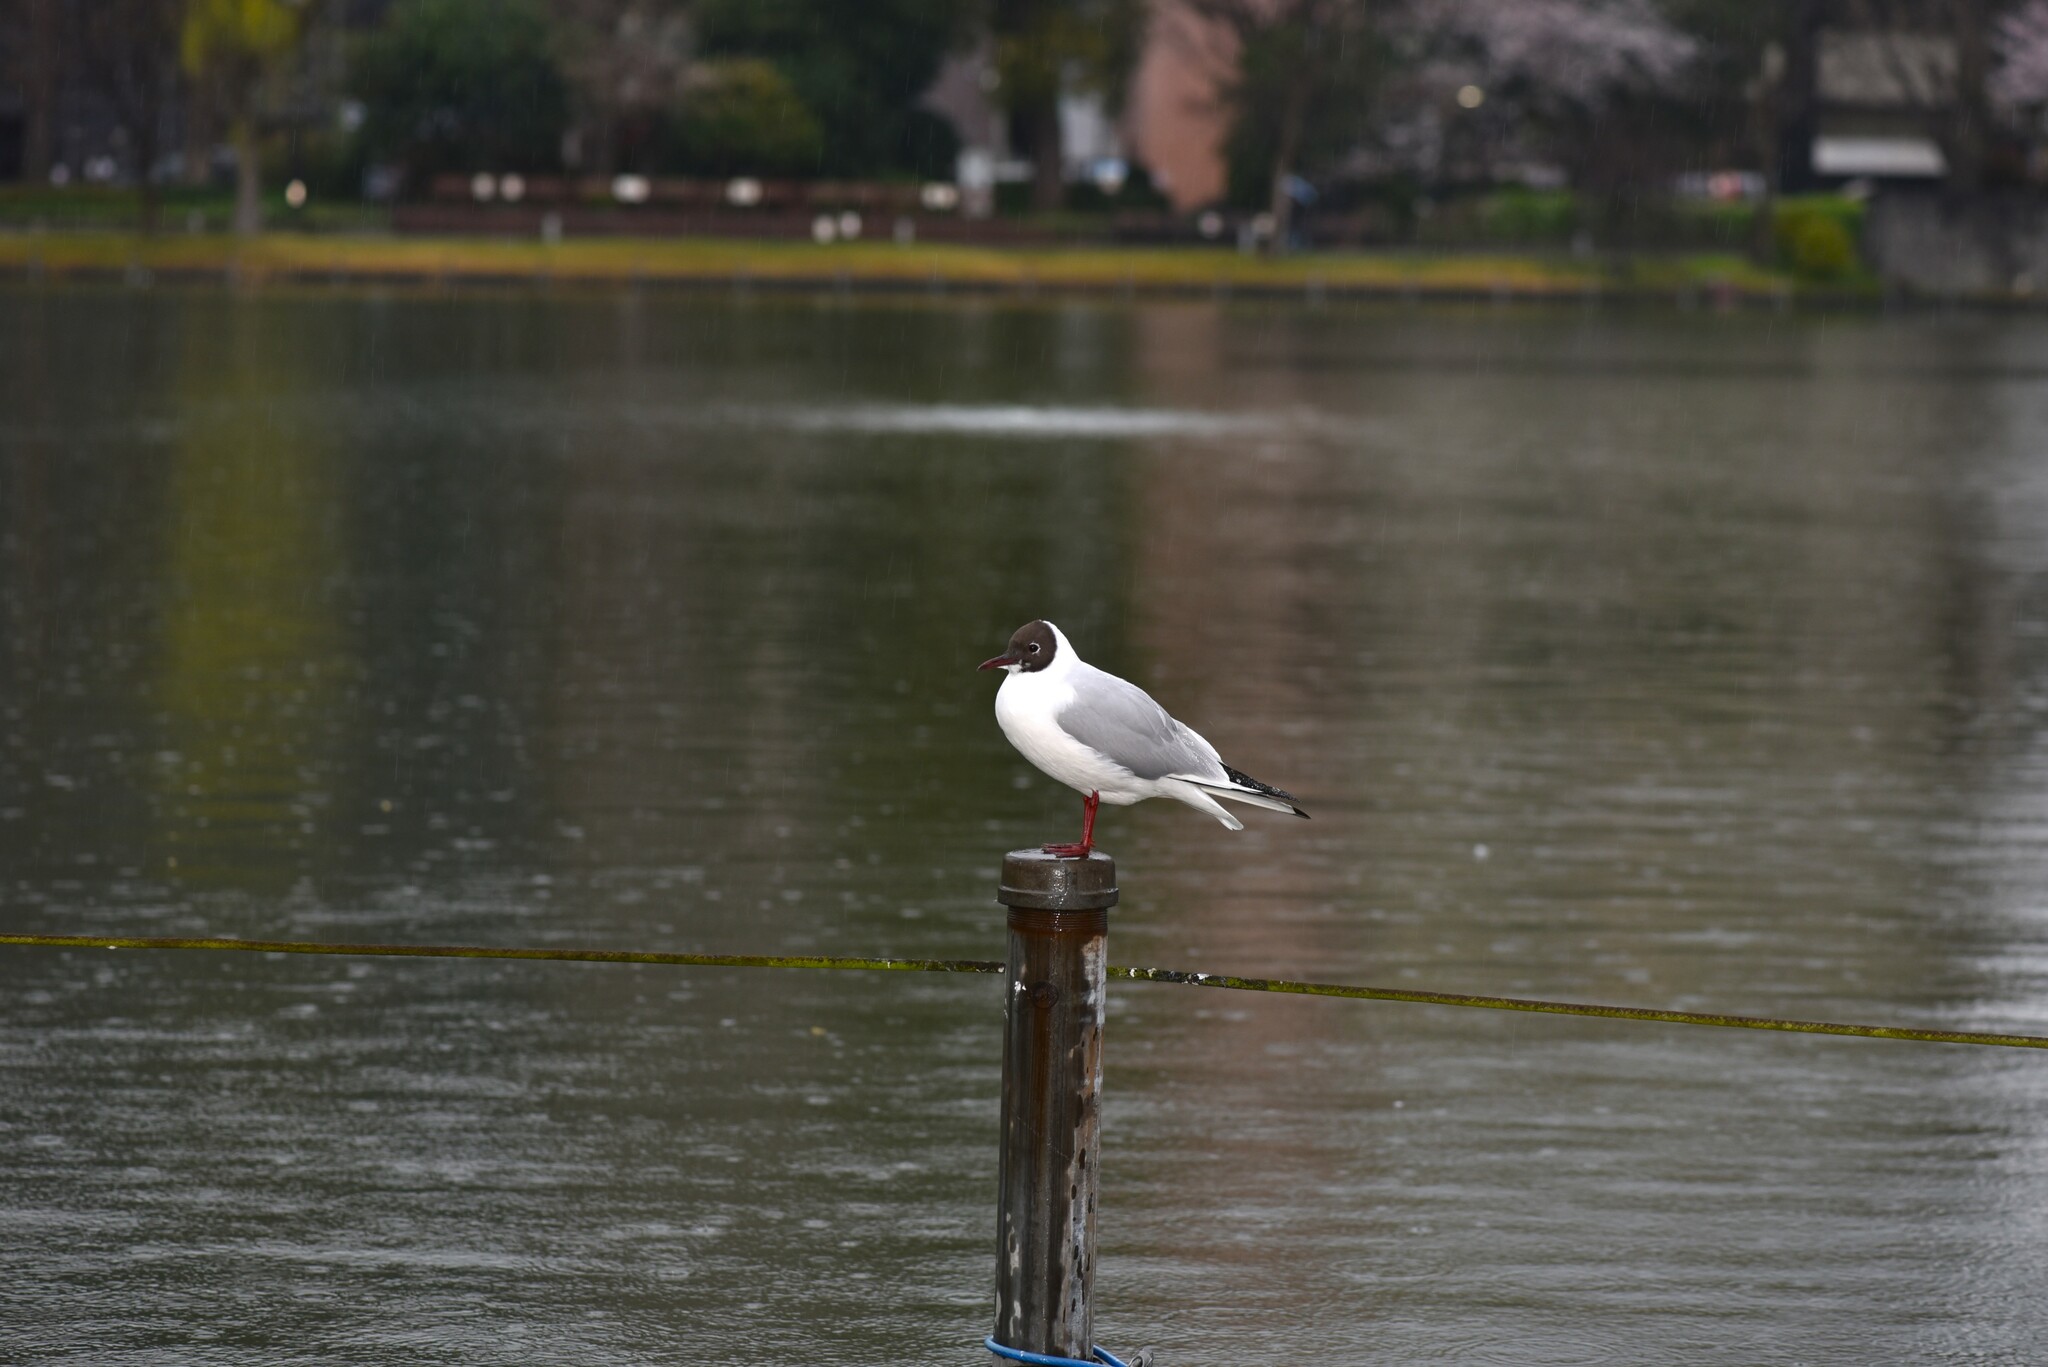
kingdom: Animalia
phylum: Chordata
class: Aves
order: Charadriiformes
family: Laridae
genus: Chroicocephalus
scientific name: Chroicocephalus ridibundus
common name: Black-headed gull
